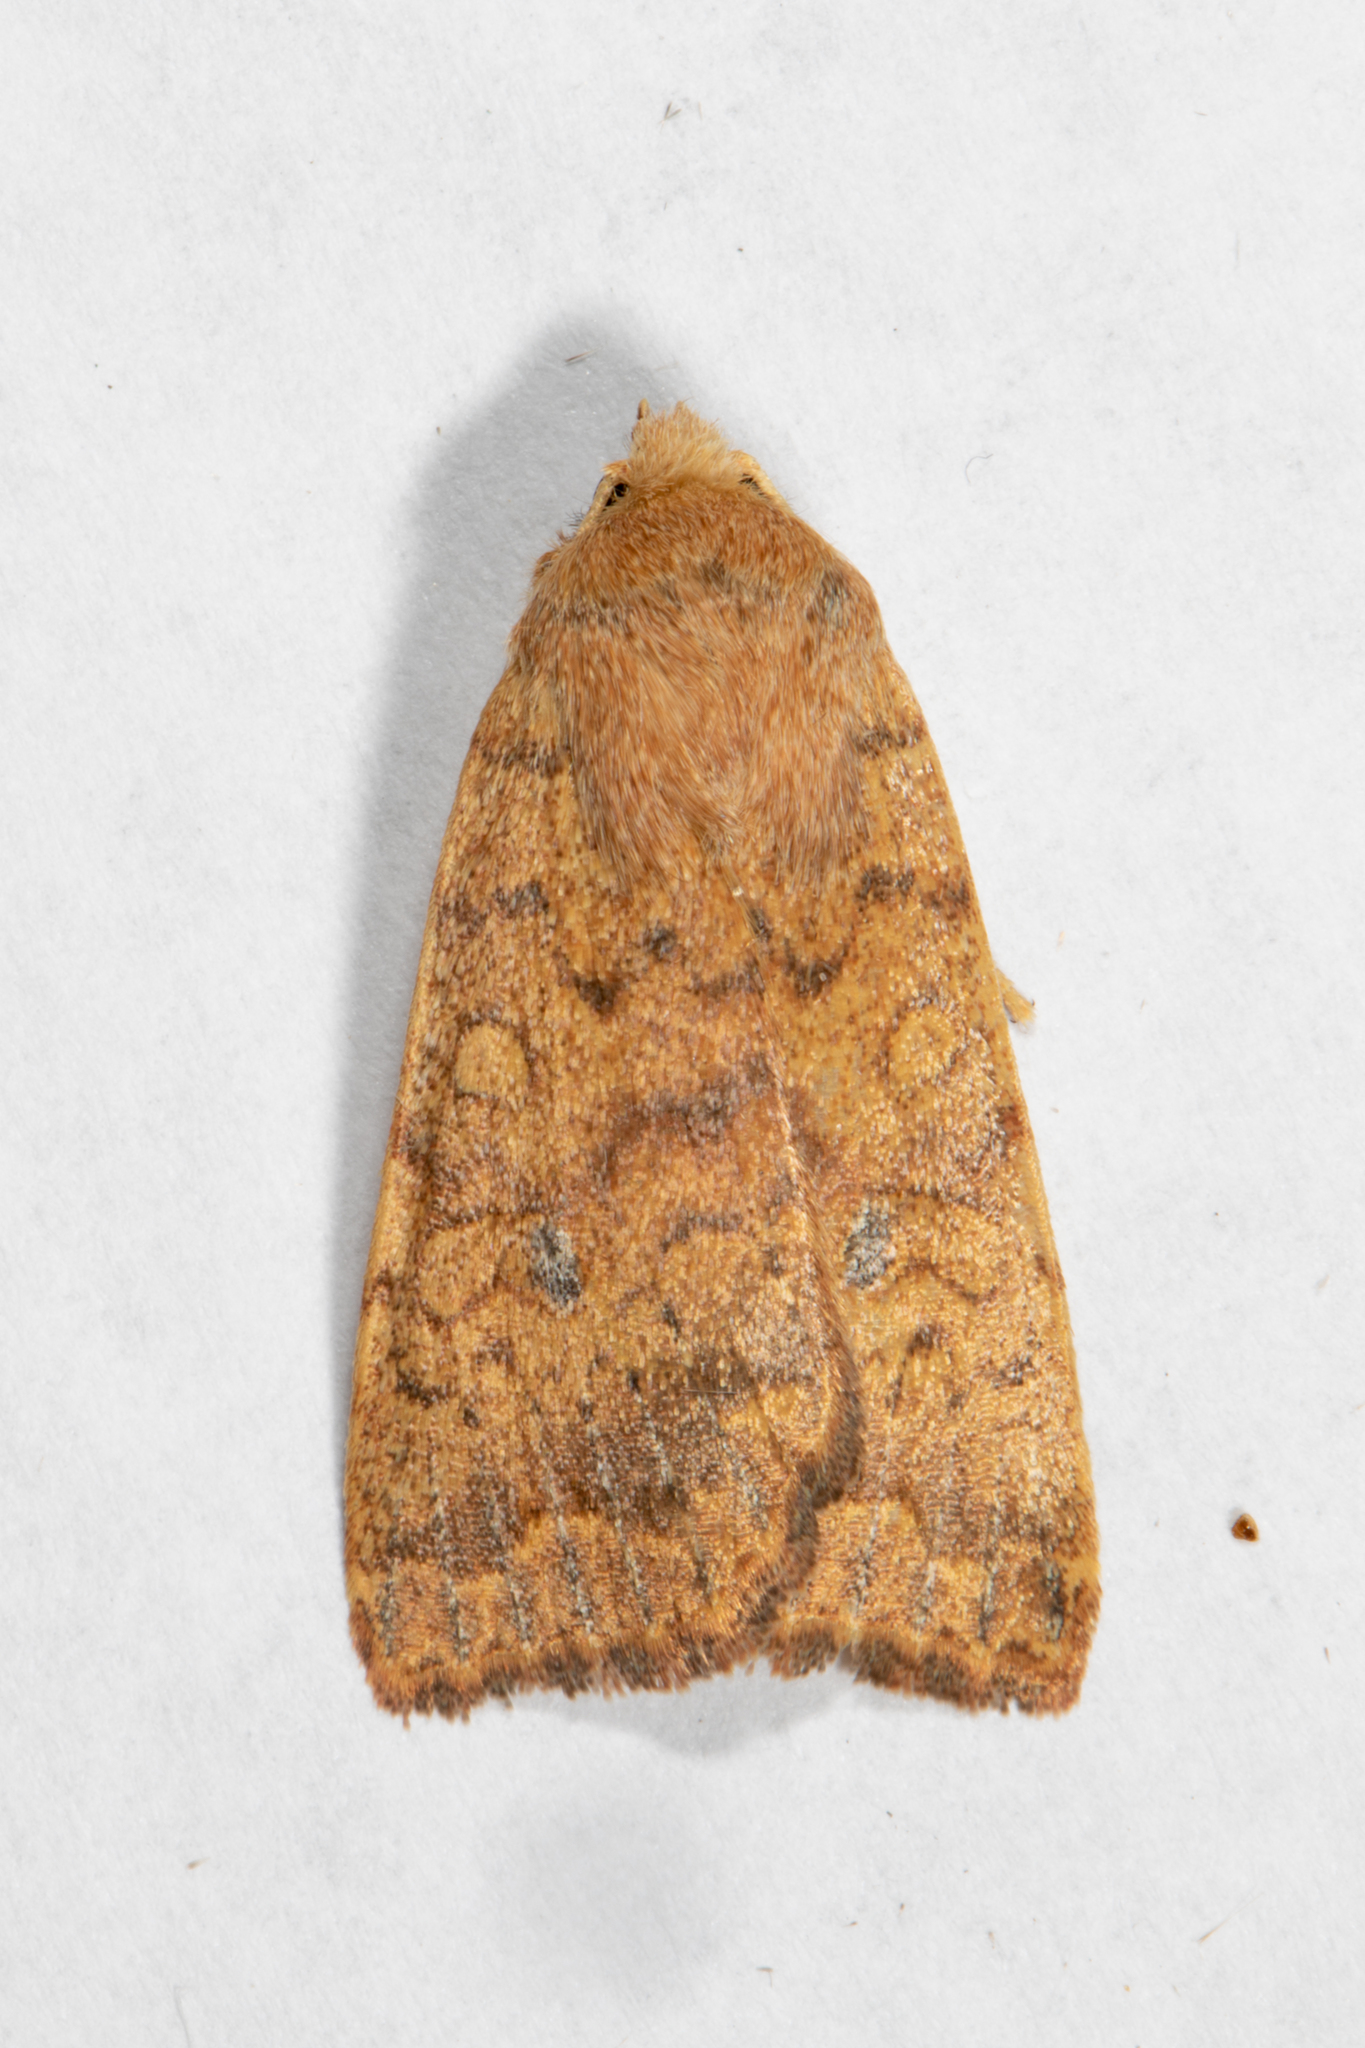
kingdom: Animalia
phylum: Arthropoda
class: Insecta
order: Lepidoptera
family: Noctuidae
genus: Agrochola
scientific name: Agrochola bicolorago
